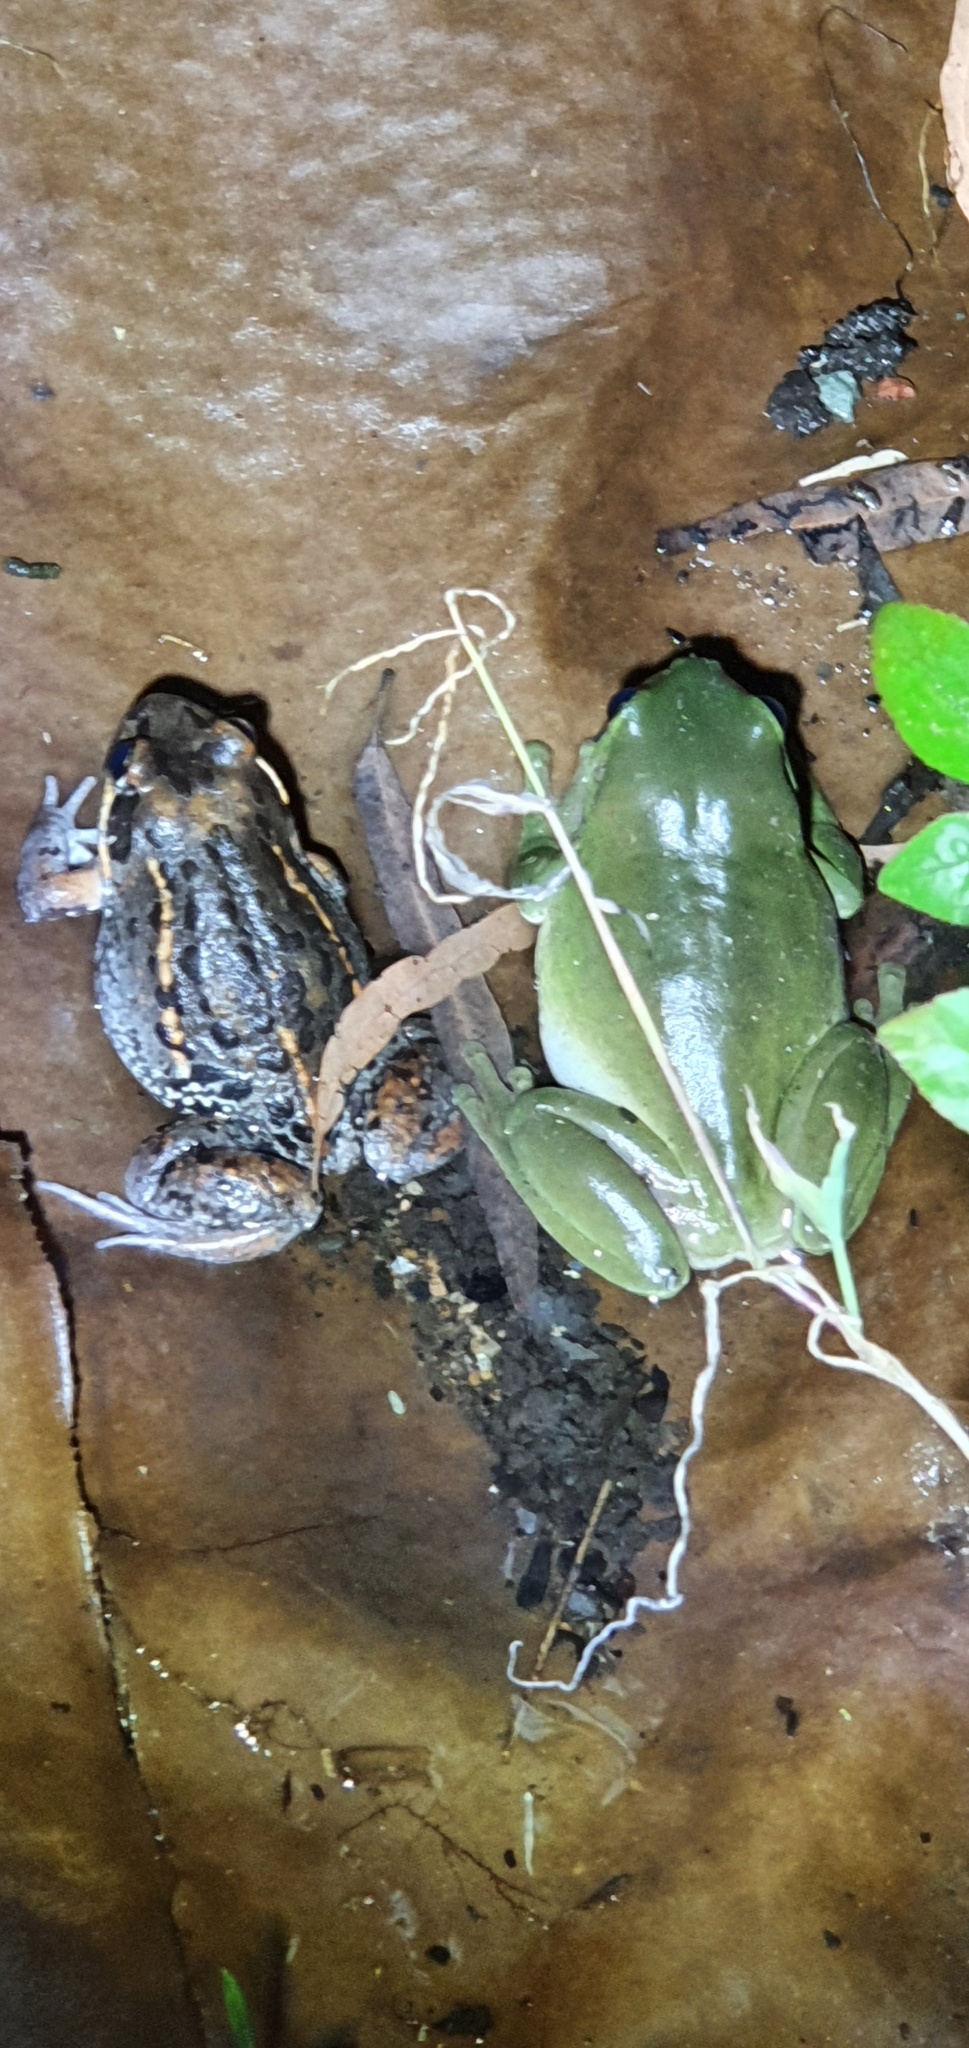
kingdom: Animalia
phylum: Chordata
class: Amphibia
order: Anura
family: Pelodryadidae
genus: Ranoidea
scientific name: Ranoidea caerulea
